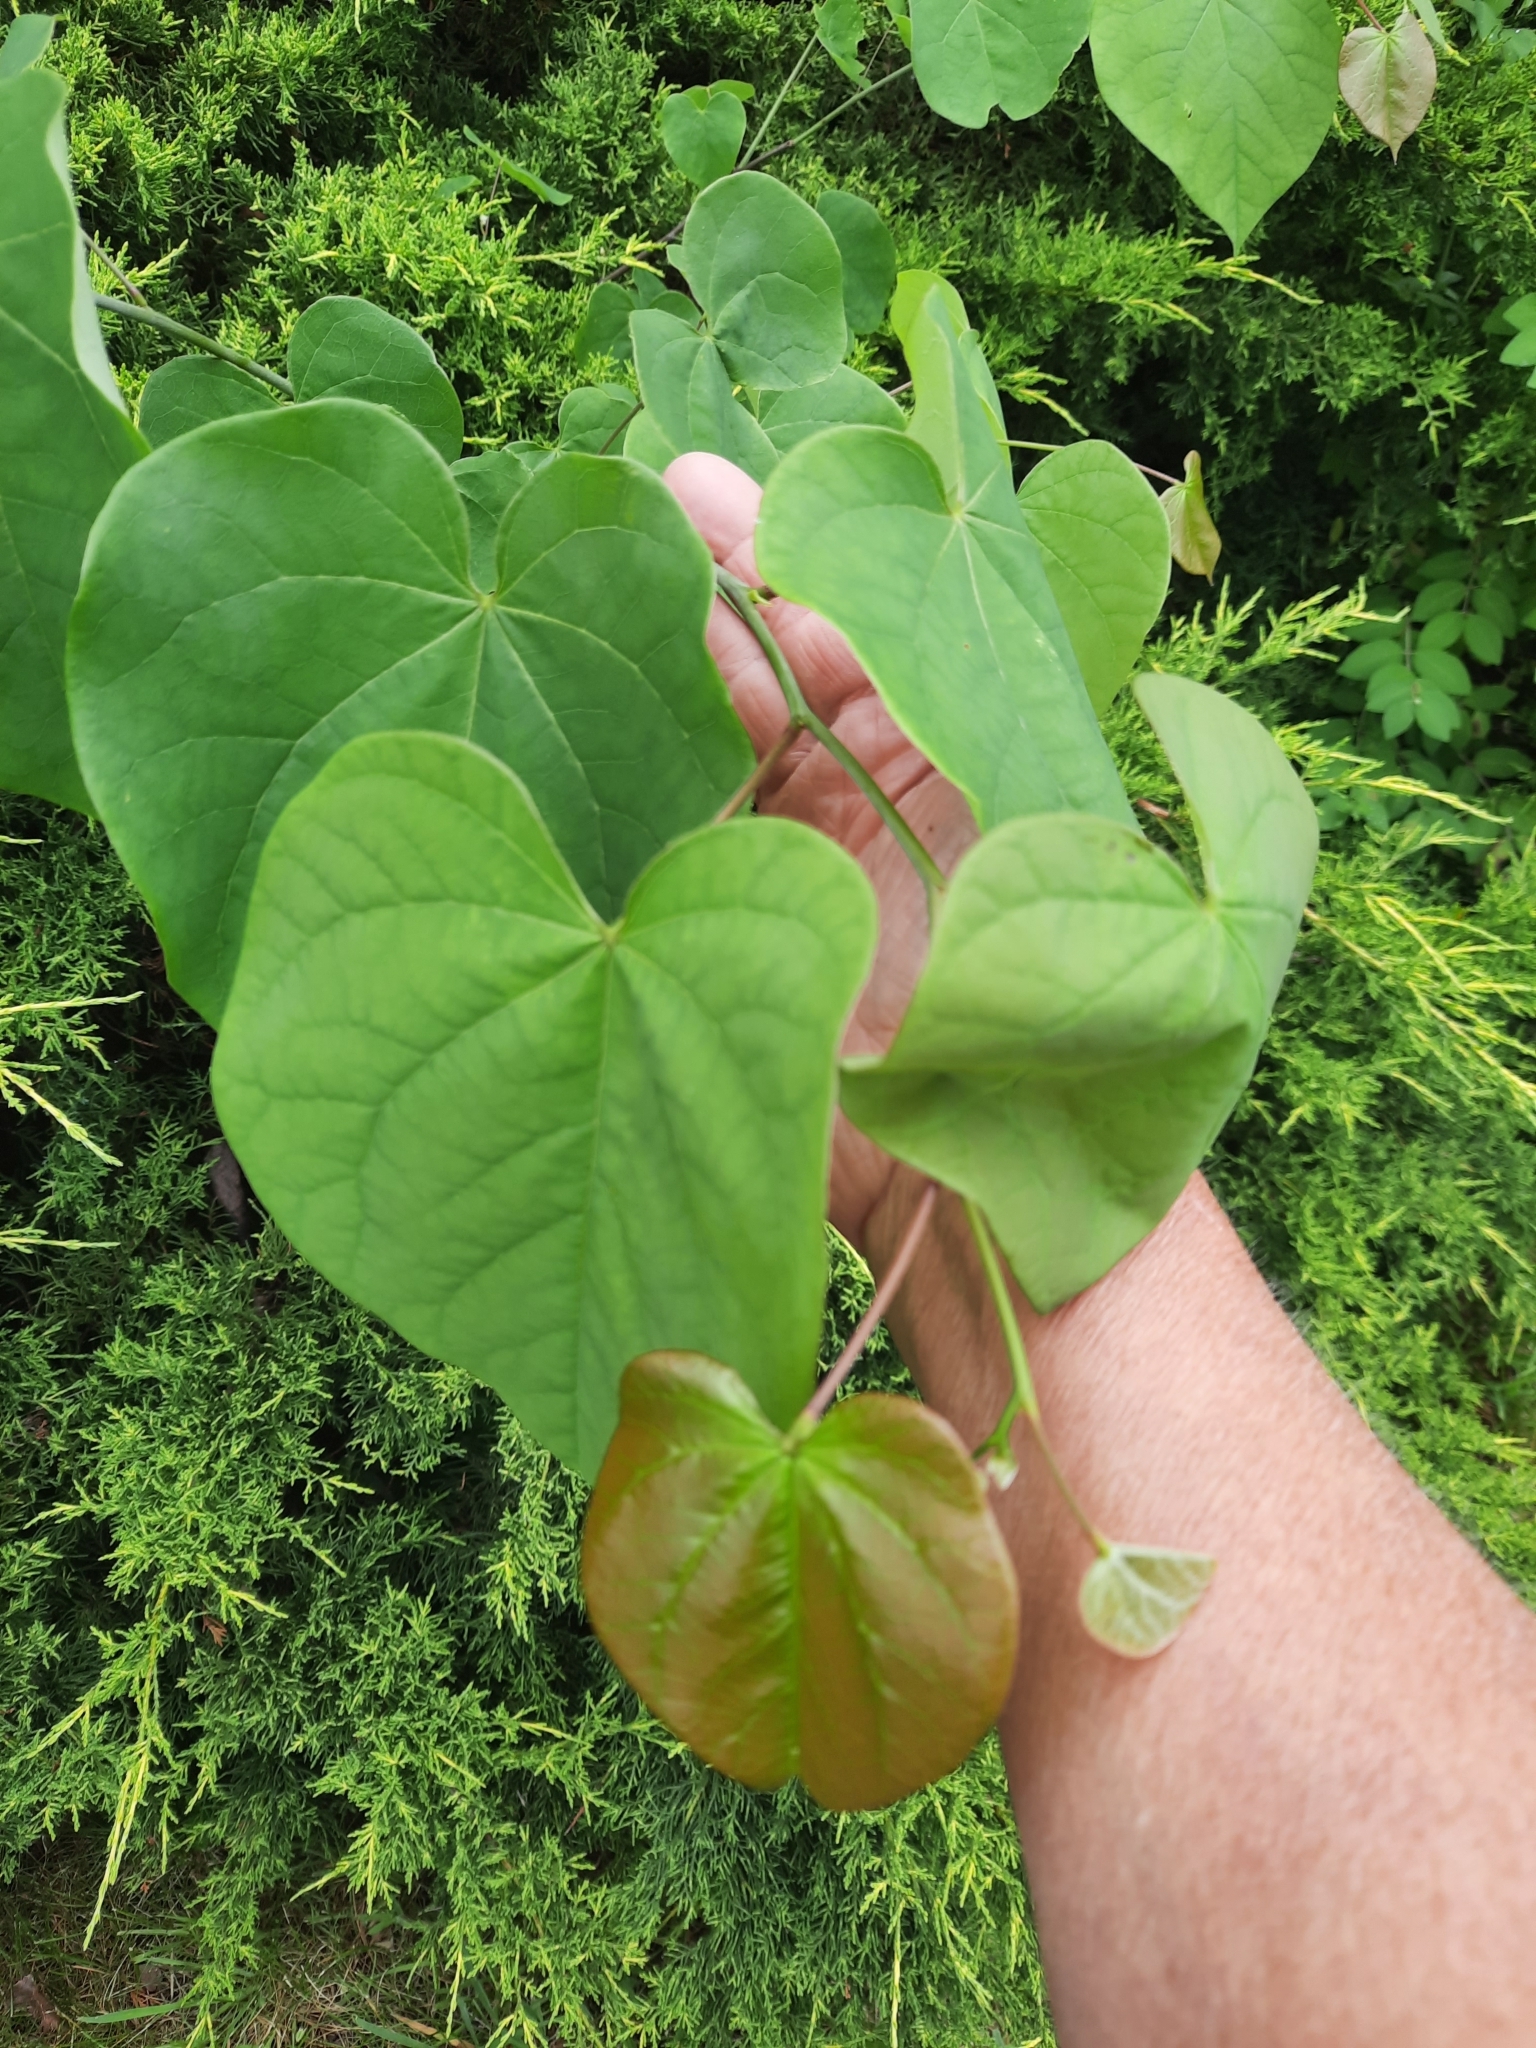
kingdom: Plantae
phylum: Tracheophyta
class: Magnoliopsida
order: Fabales
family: Fabaceae
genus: Cercis
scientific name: Cercis canadensis
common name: Eastern redbud
